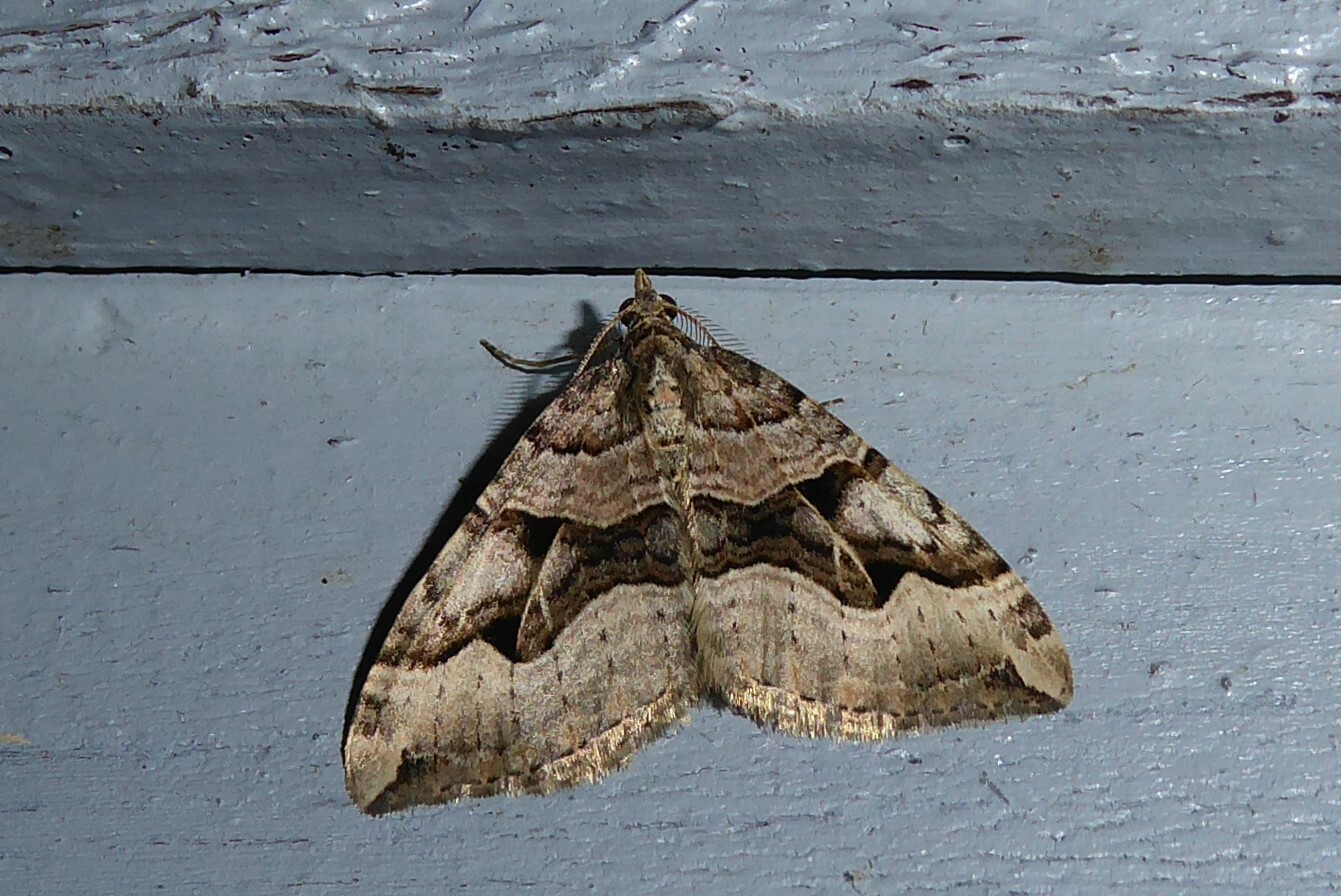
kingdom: Animalia
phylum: Arthropoda
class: Insecta
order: Lepidoptera
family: Geometridae
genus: Xanthorhoe
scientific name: Xanthorhoe semifissata
